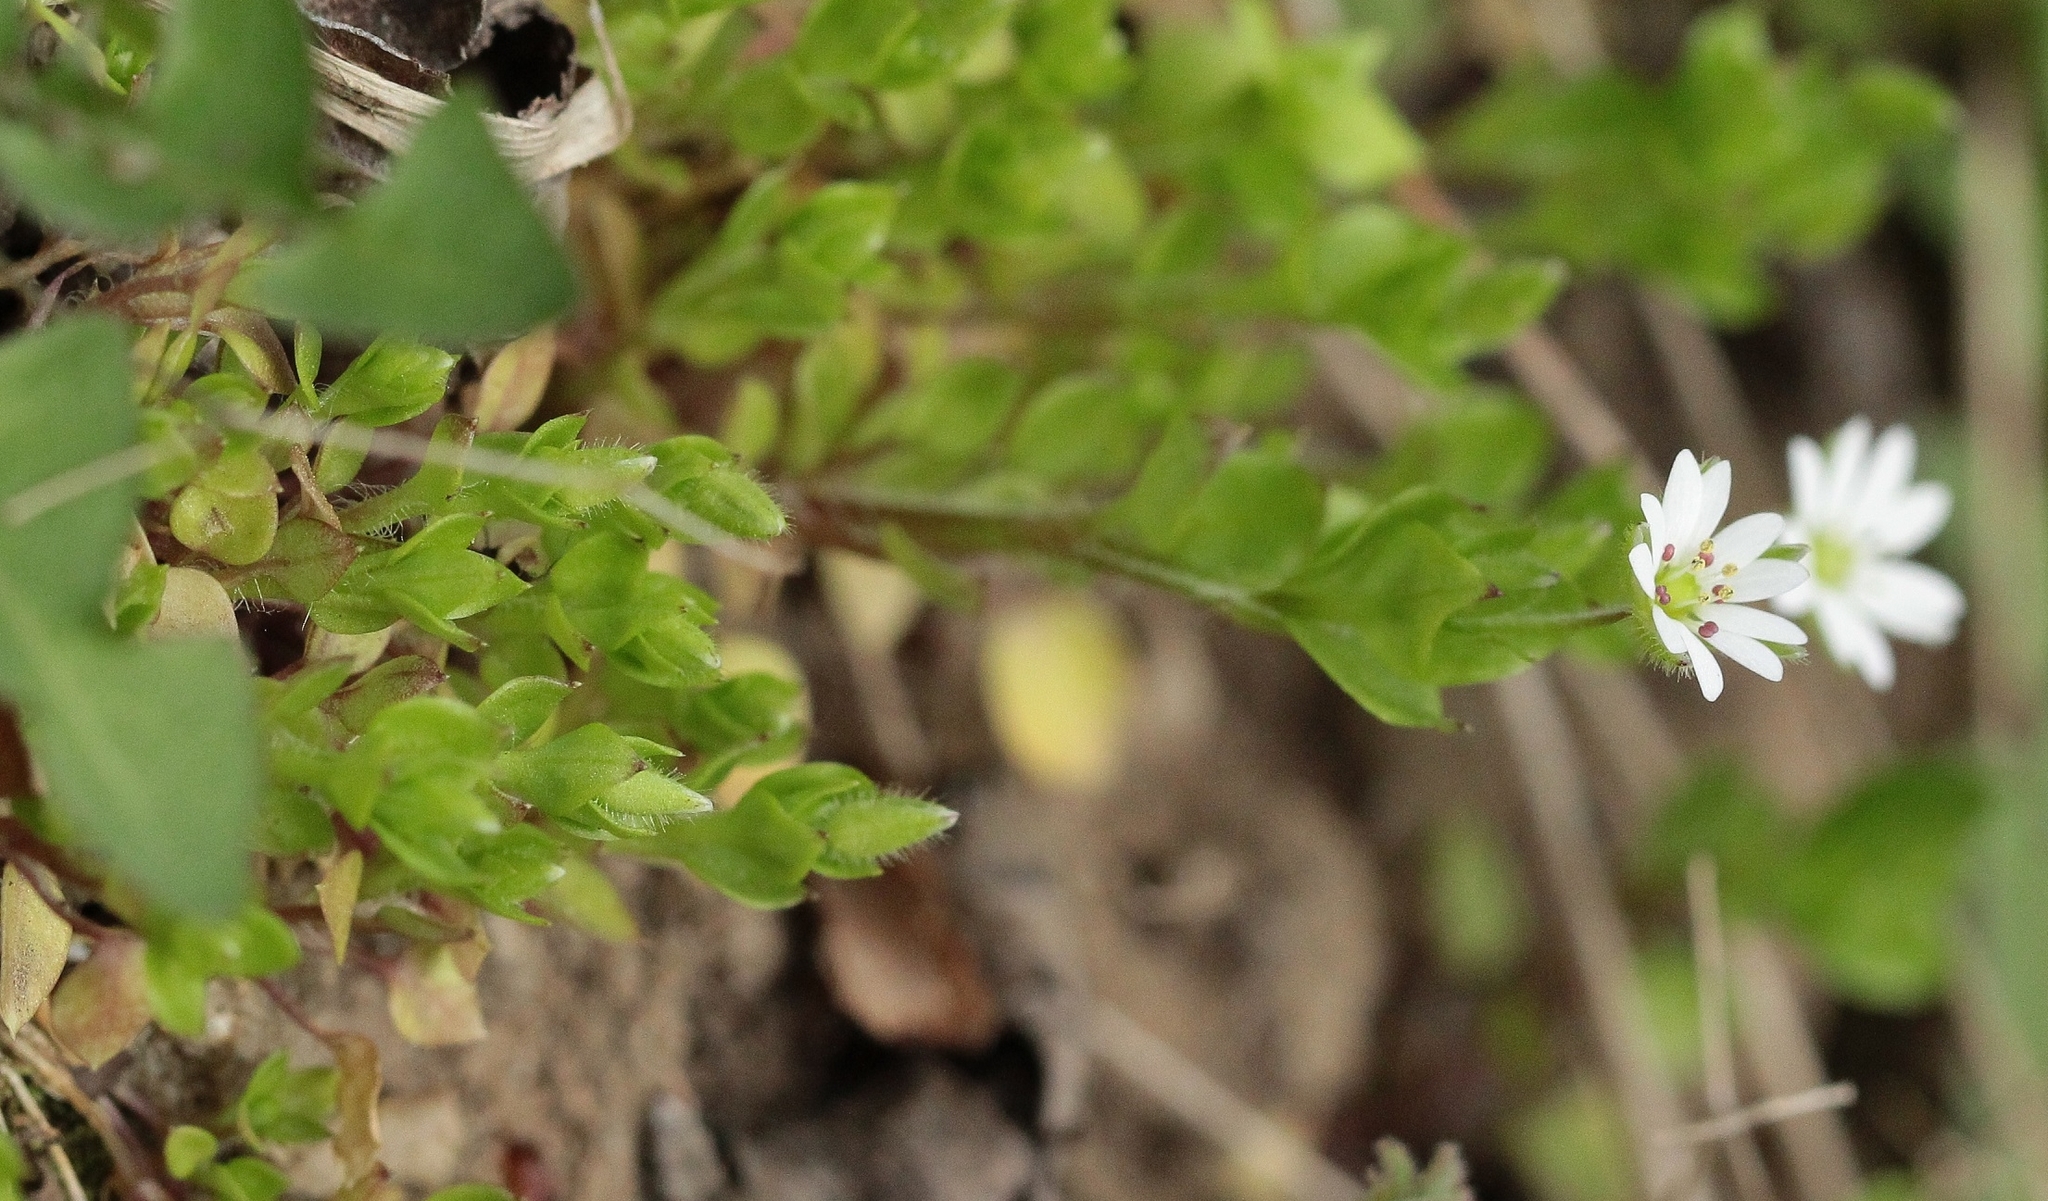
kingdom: Plantae
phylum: Tracheophyta
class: Magnoliopsida
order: Caryophyllales
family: Caryophyllaceae
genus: Stellaria
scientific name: Stellaria media
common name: Common chickweed
